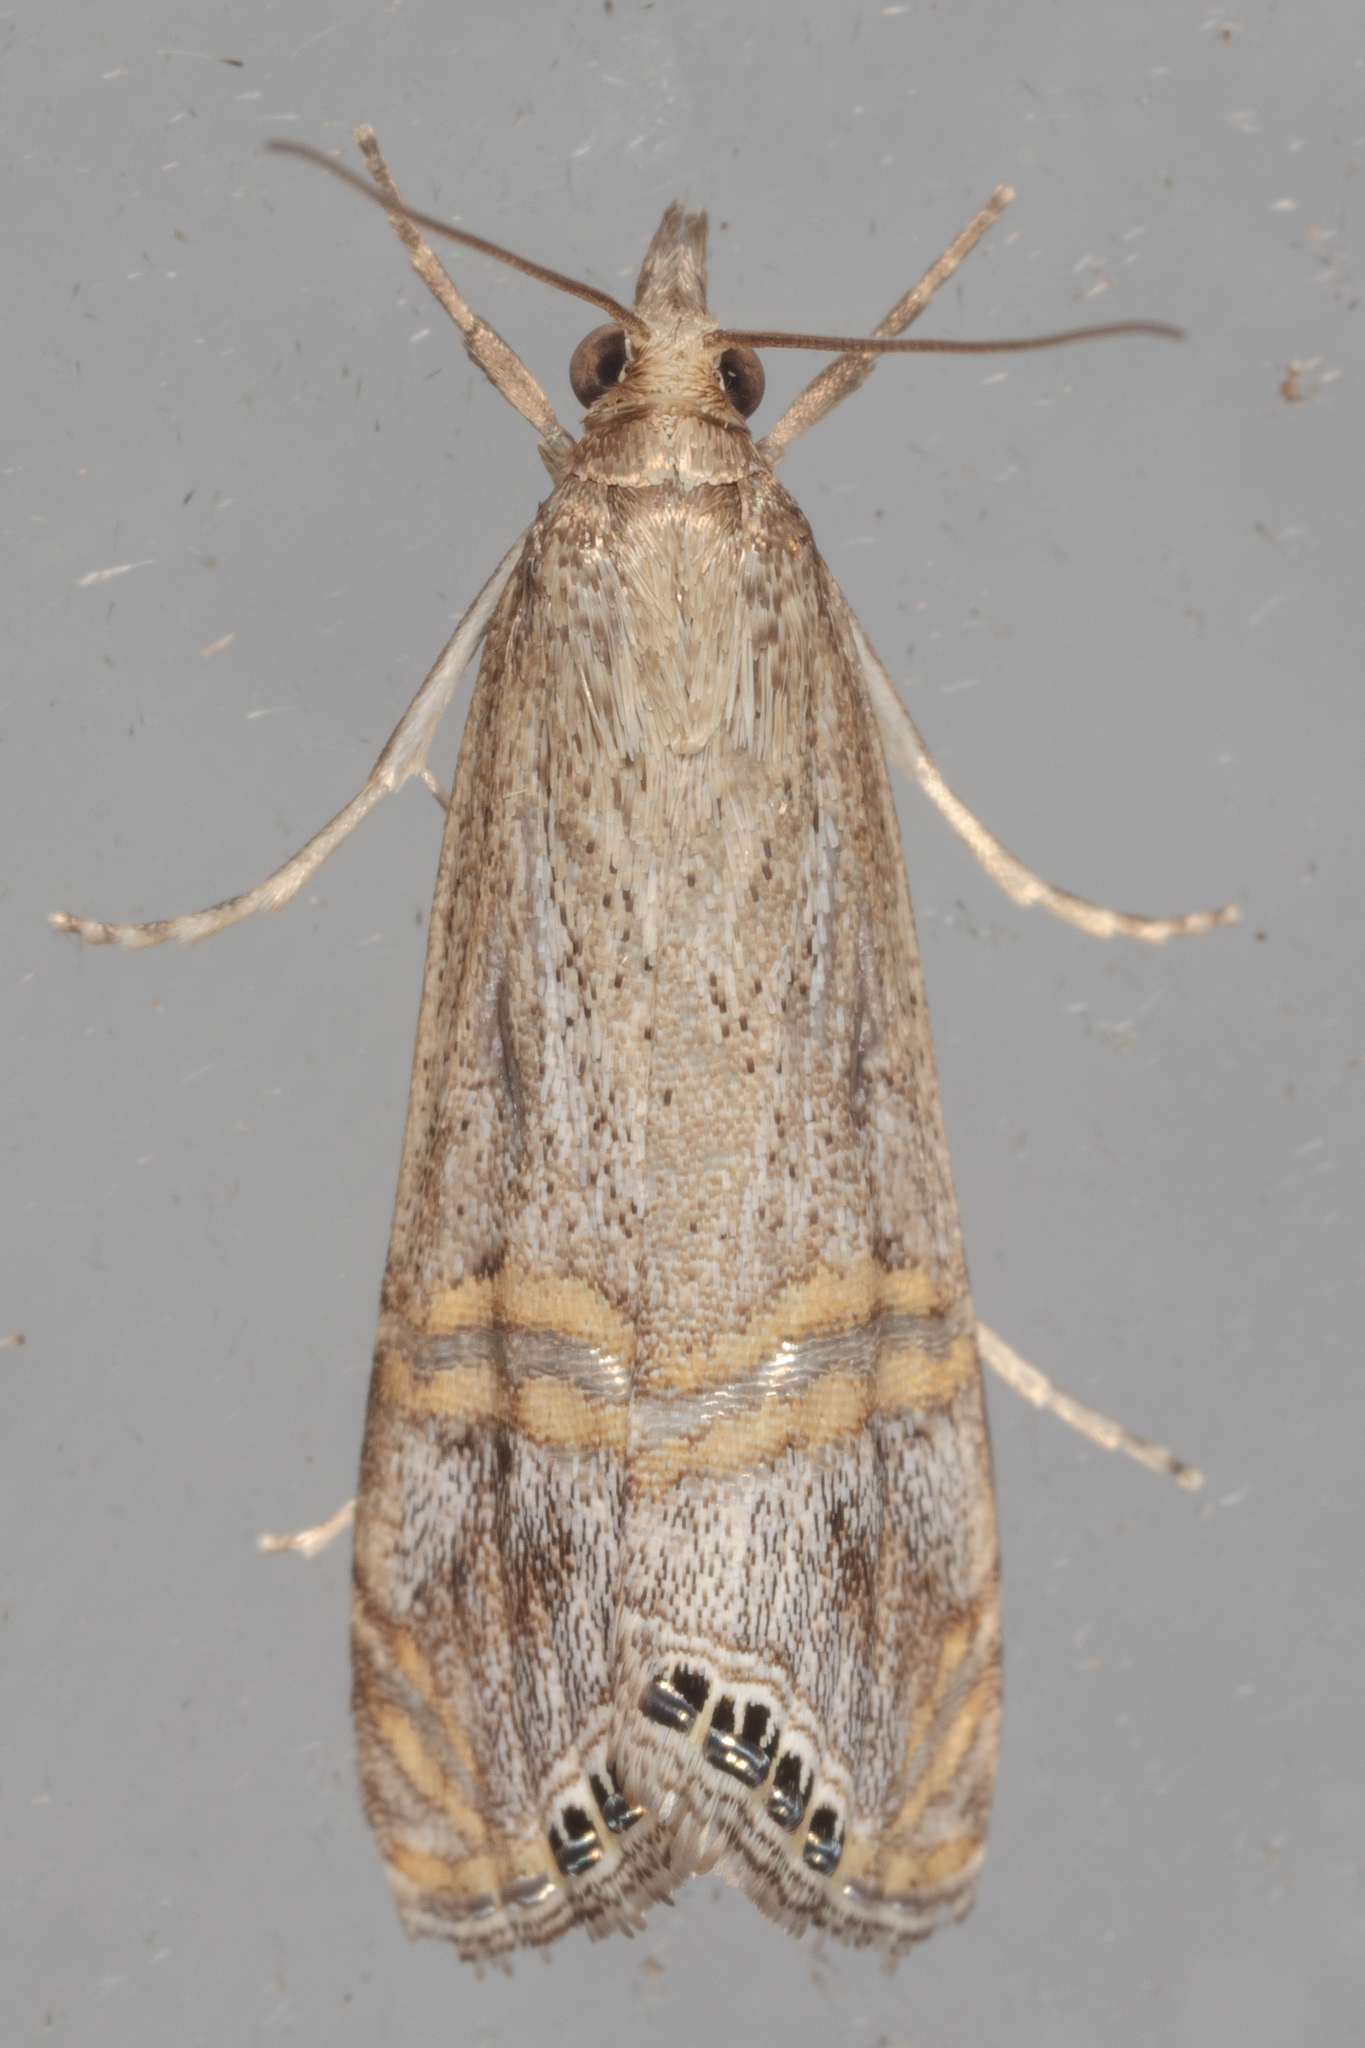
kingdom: Animalia
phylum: Arthropoda
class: Insecta
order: Lepidoptera
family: Crambidae
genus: Euchromius
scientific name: Euchromius ocellea
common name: Necklace veneer moth
